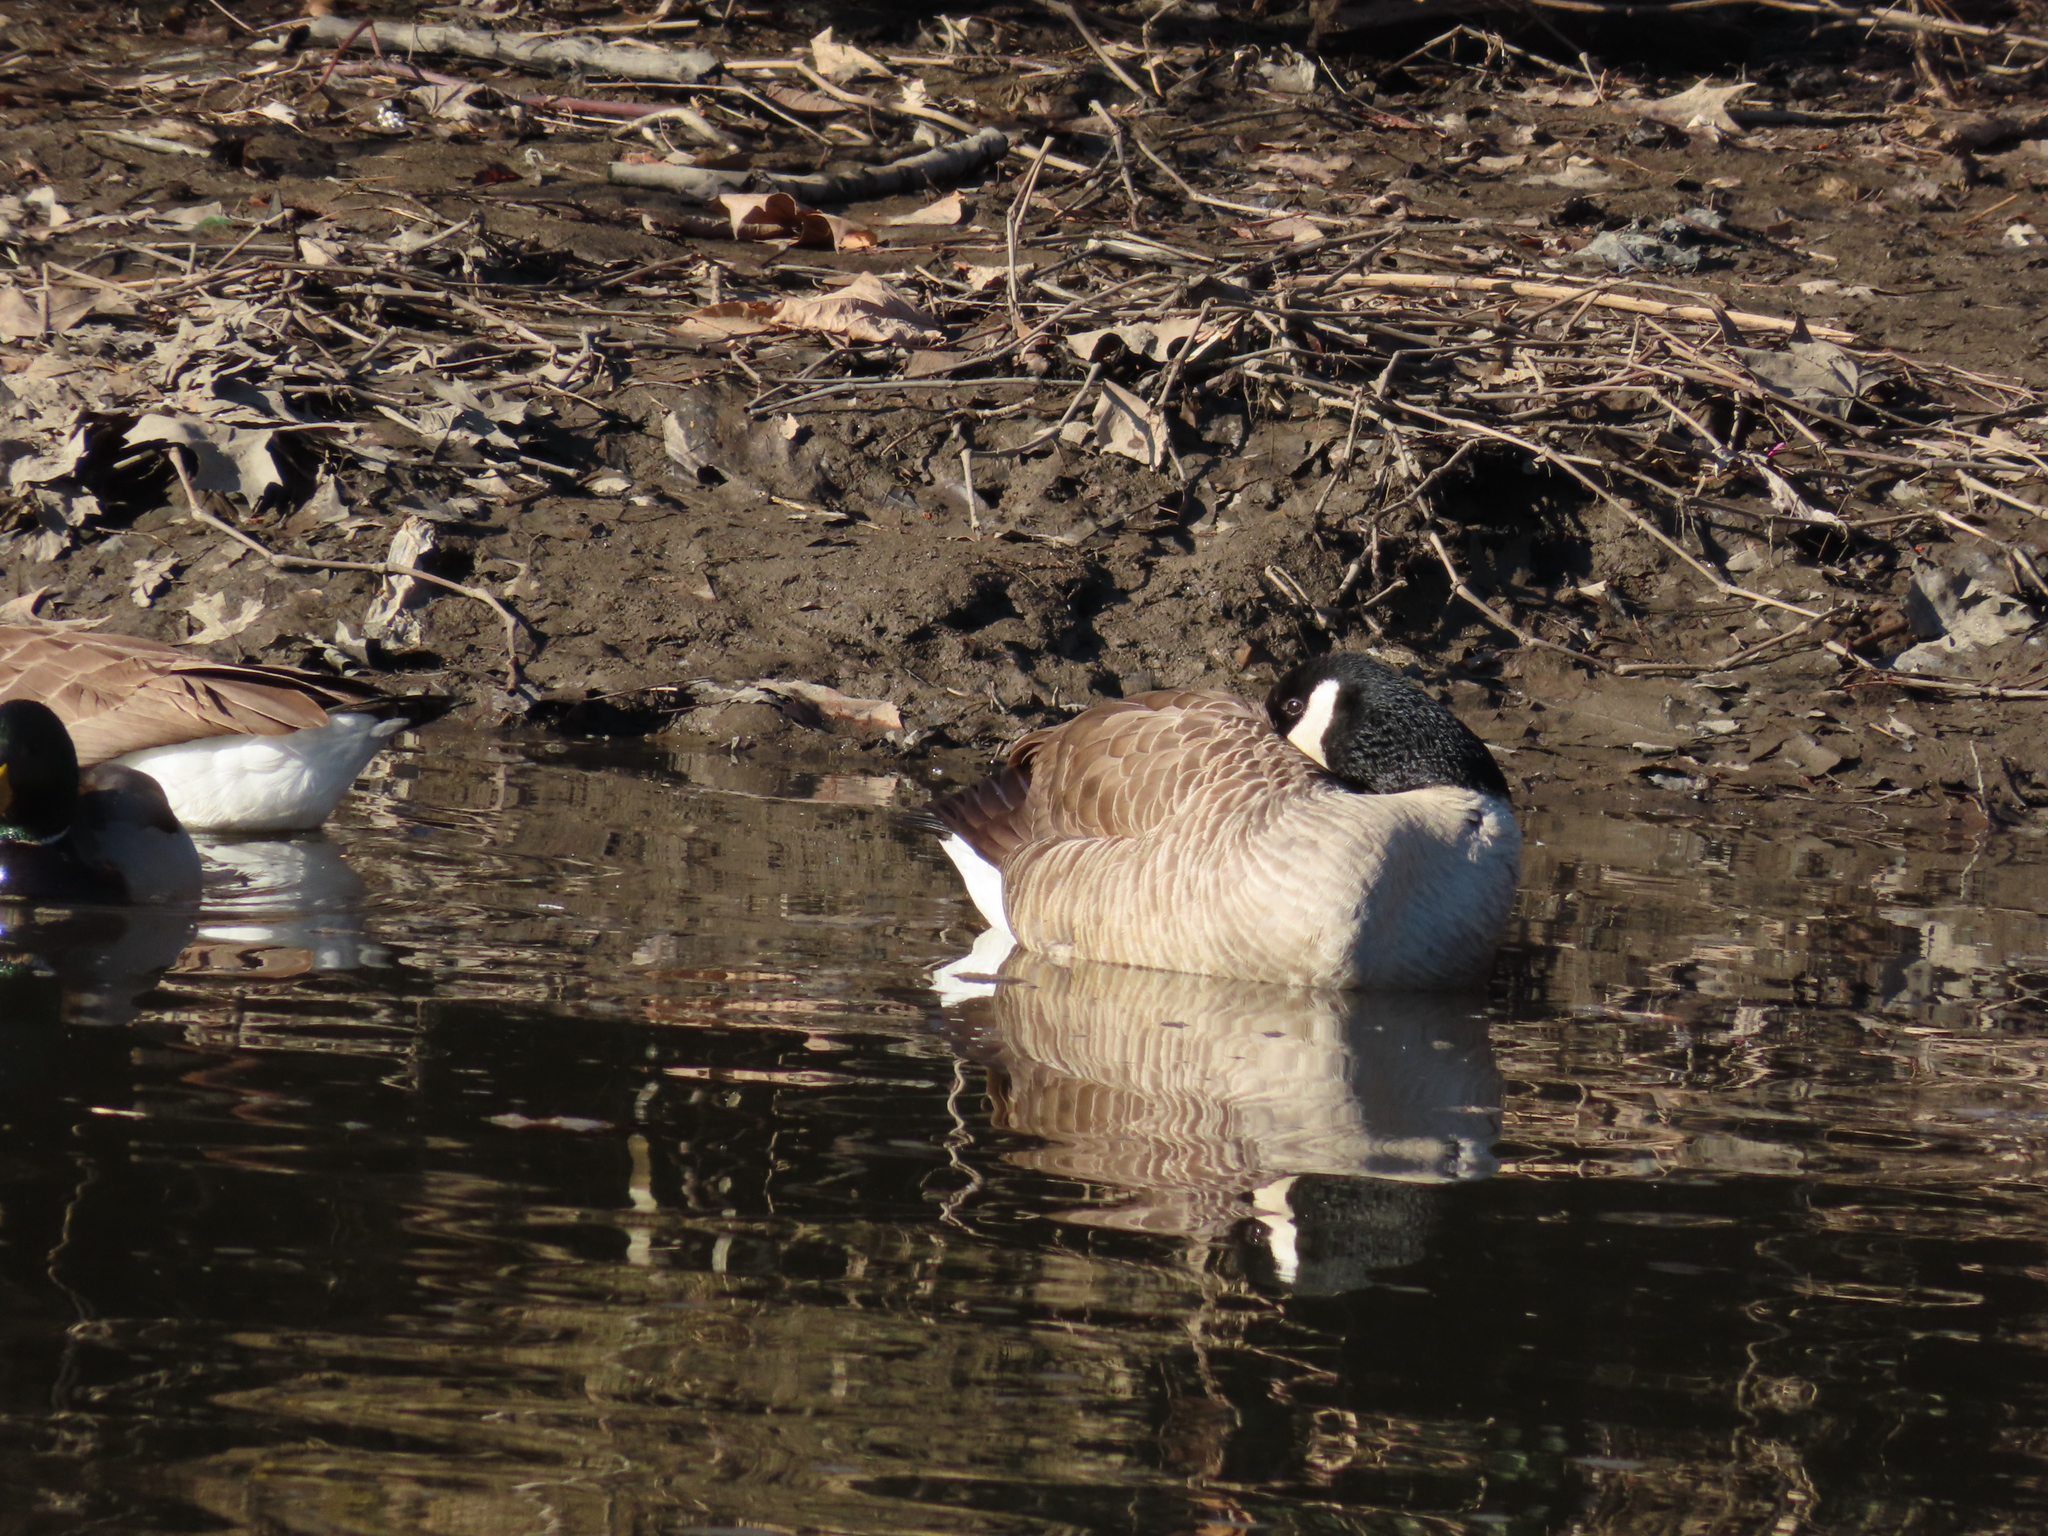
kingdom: Animalia
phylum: Chordata
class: Aves
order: Anseriformes
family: Anatidae
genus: Anas
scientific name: Anas platyrhynchos
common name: Mallard
